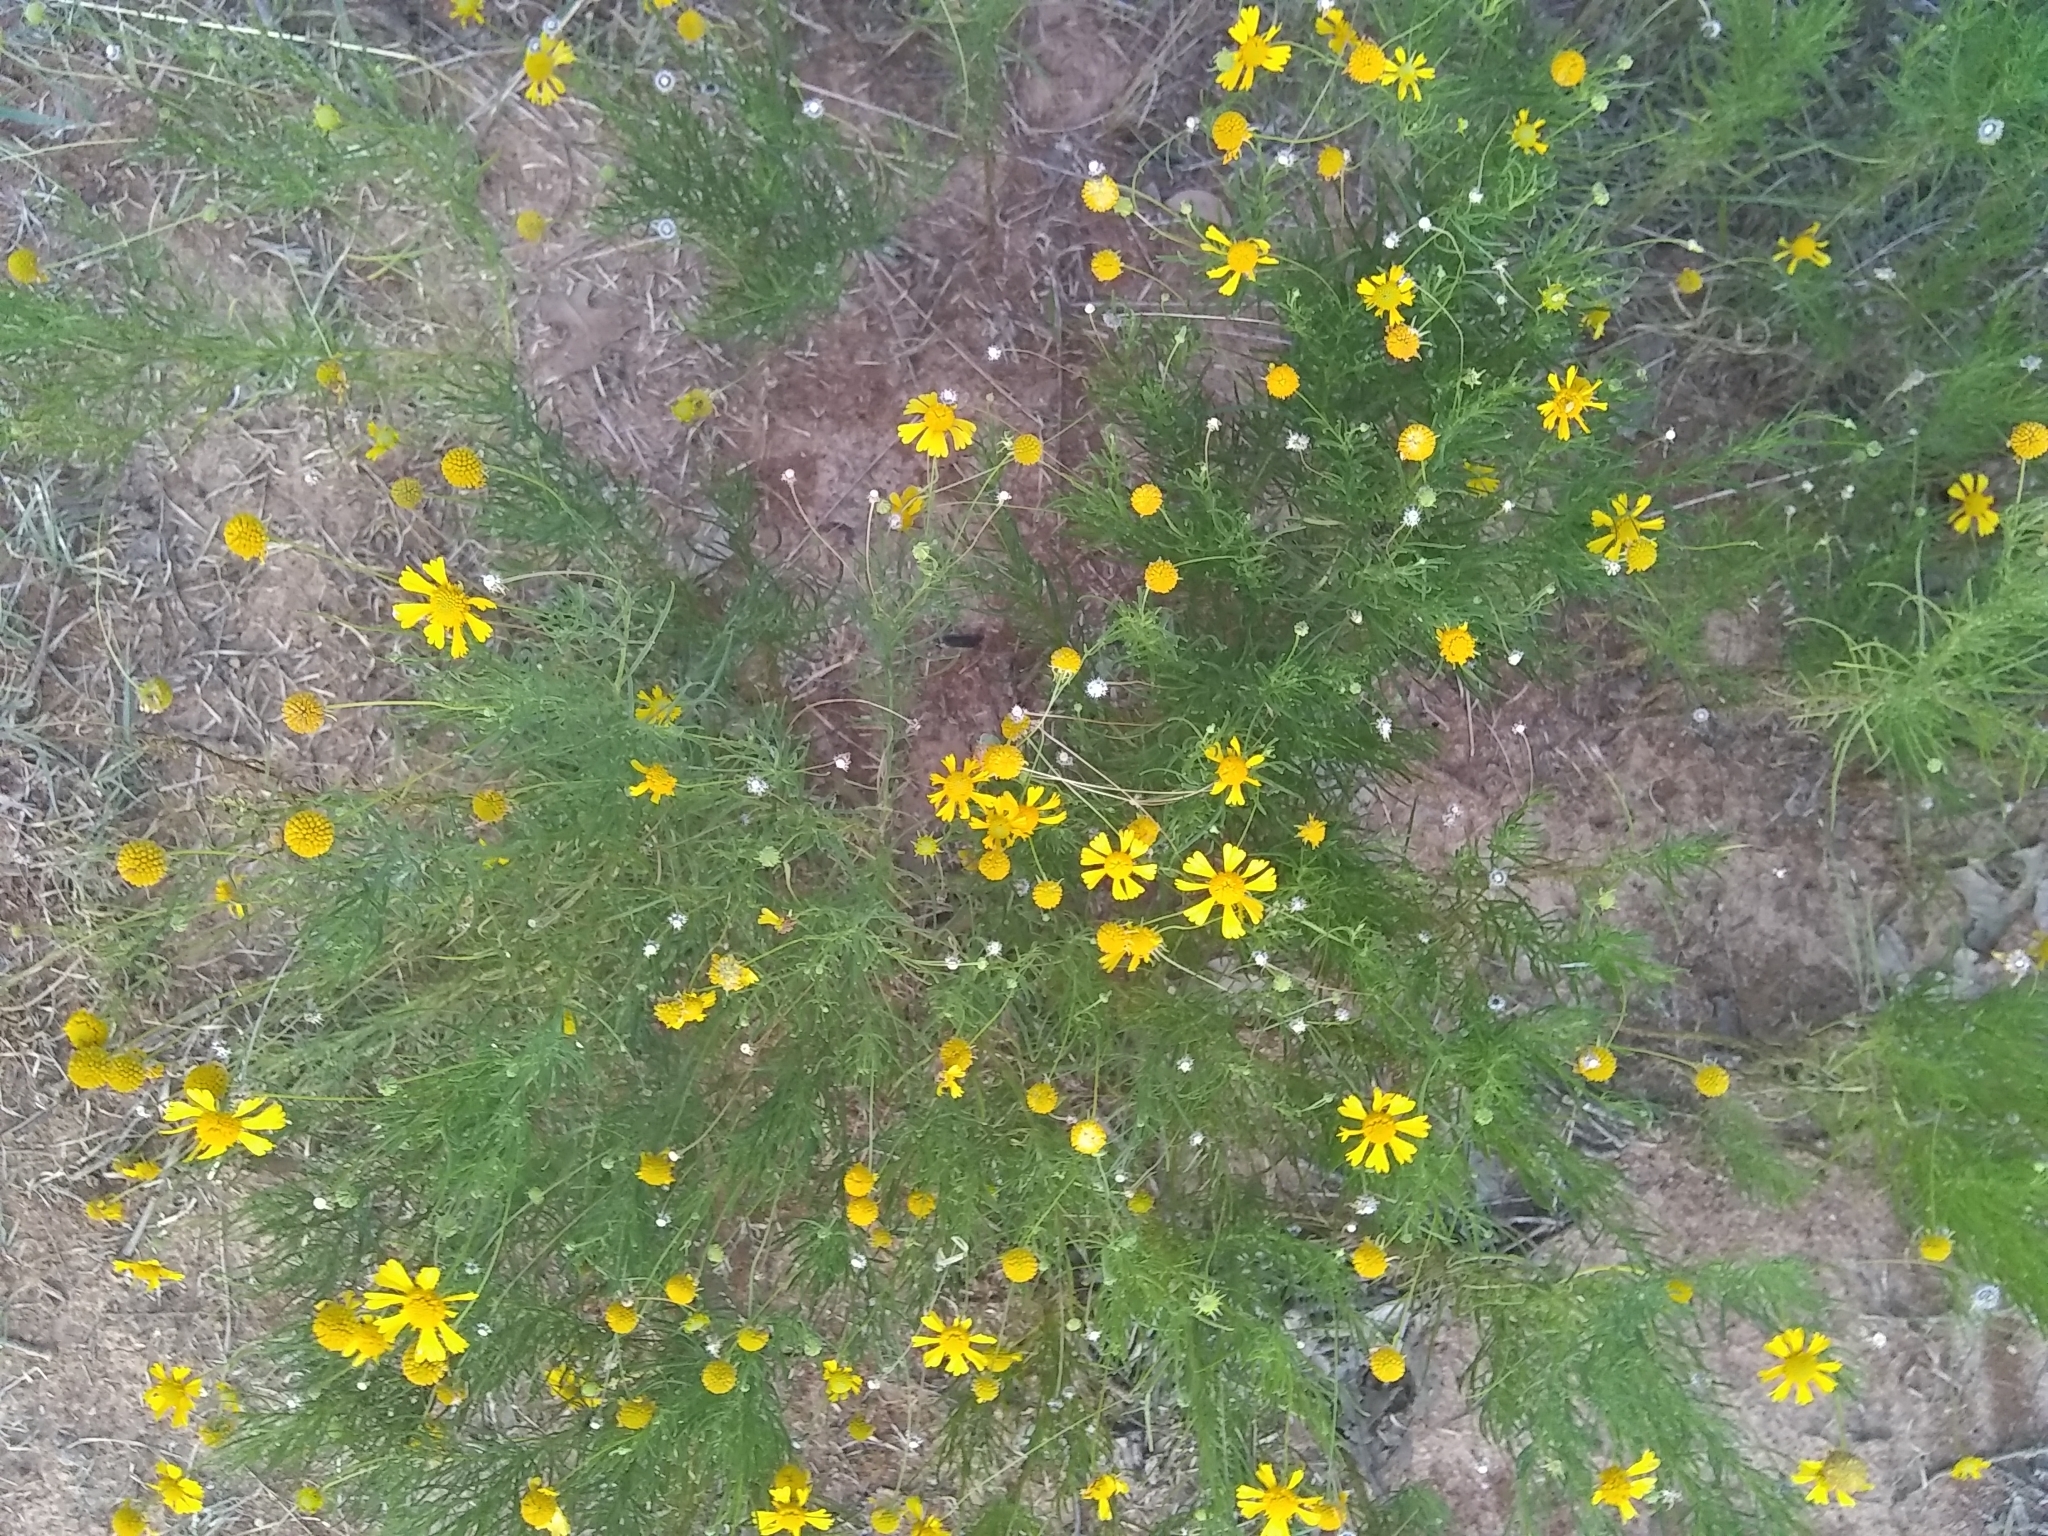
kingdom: Plantae
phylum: Tracheophyta
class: Magnoliopsida
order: Asterales
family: Asteraceae
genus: Helenium
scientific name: Helenium amarum
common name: Bitter sneezeweed
